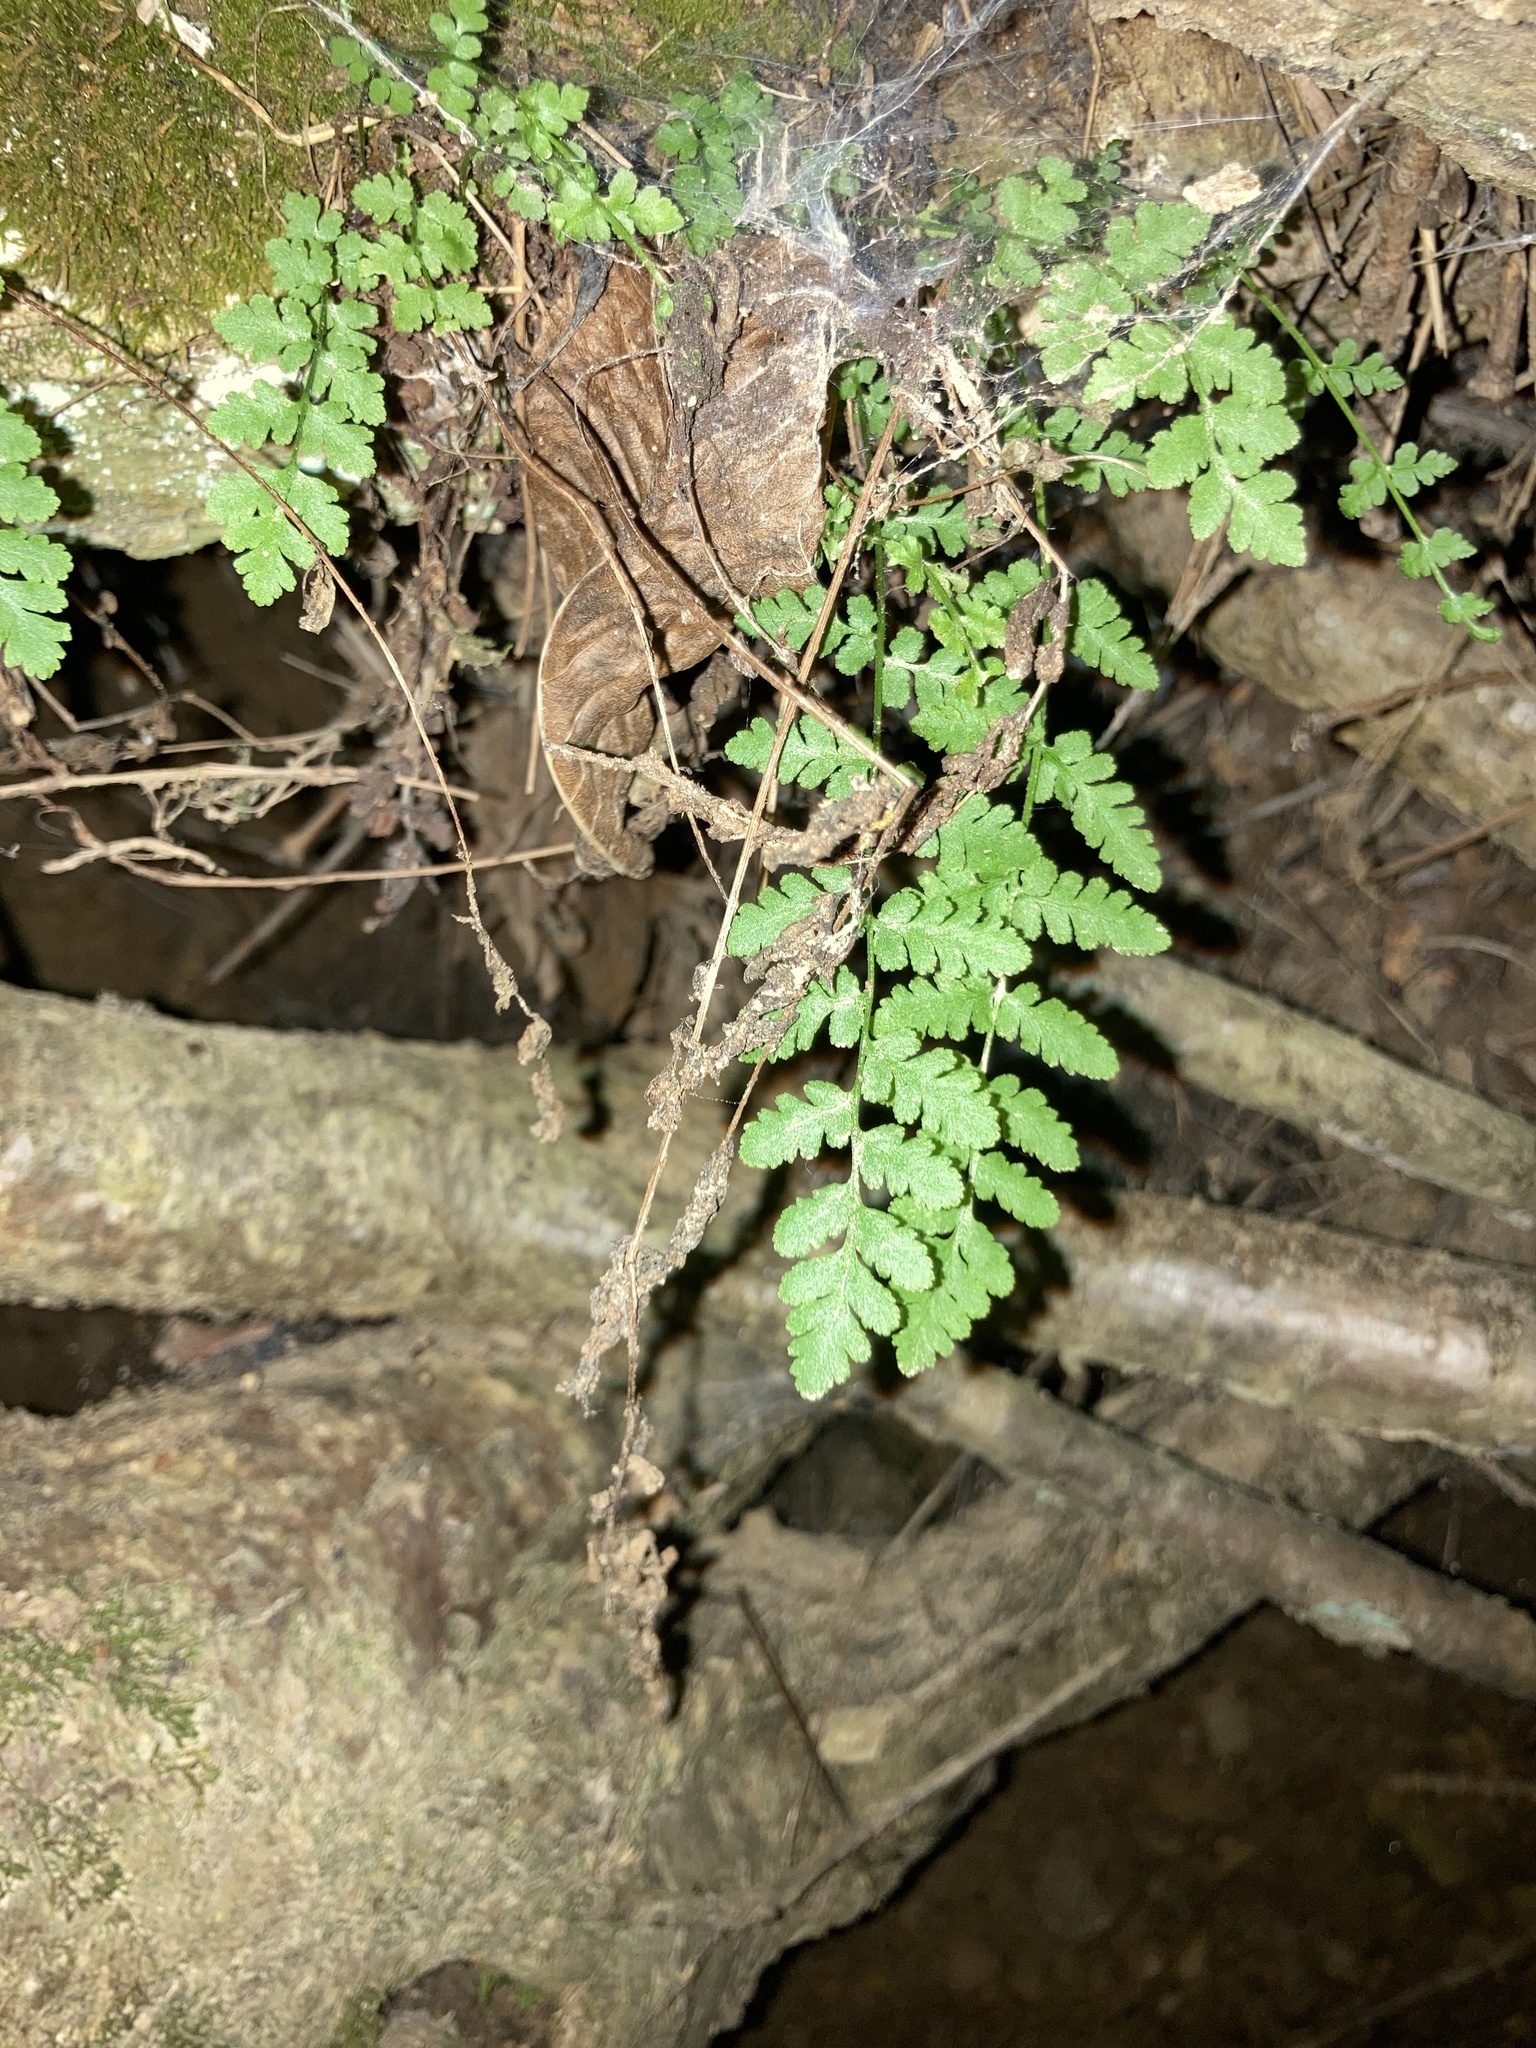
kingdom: Plantae
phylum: Tracheophyta
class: Polypodiopsida
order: Polypodiales
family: Woodsiaceae
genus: Physematium
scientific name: Physematium obtusum
